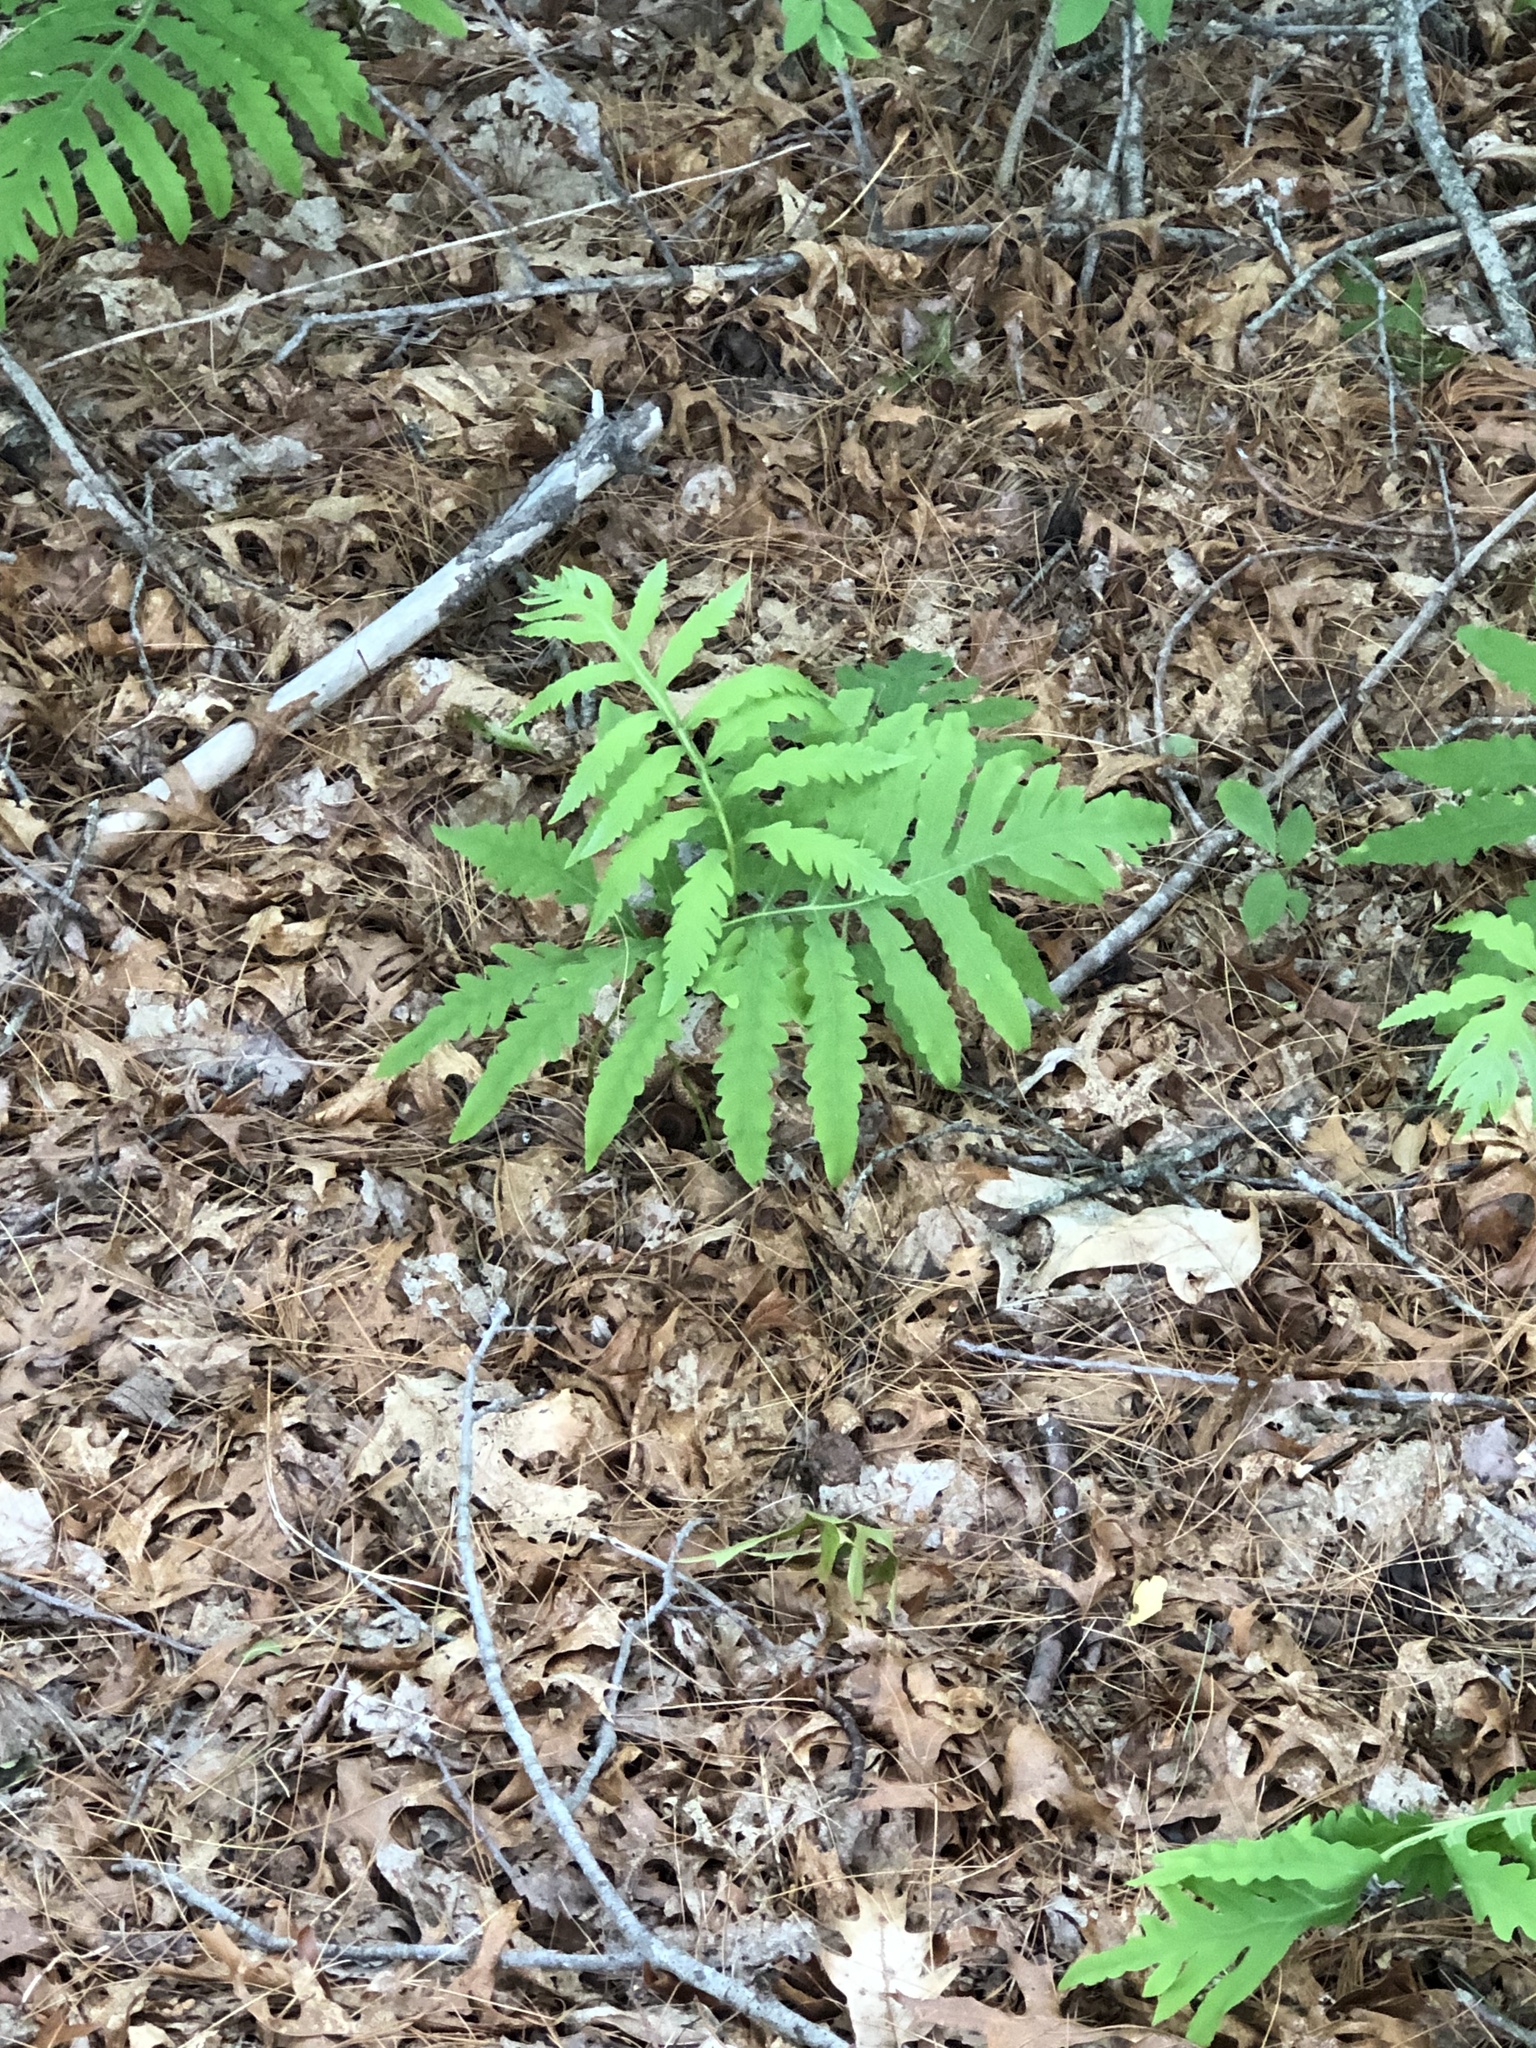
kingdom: Plantae
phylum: Tracheophyta
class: Polypodiopsida
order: Polypodiales
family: Onocleaceae
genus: Onoclea
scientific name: Onoclea sensibilis
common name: Sensitive fern
